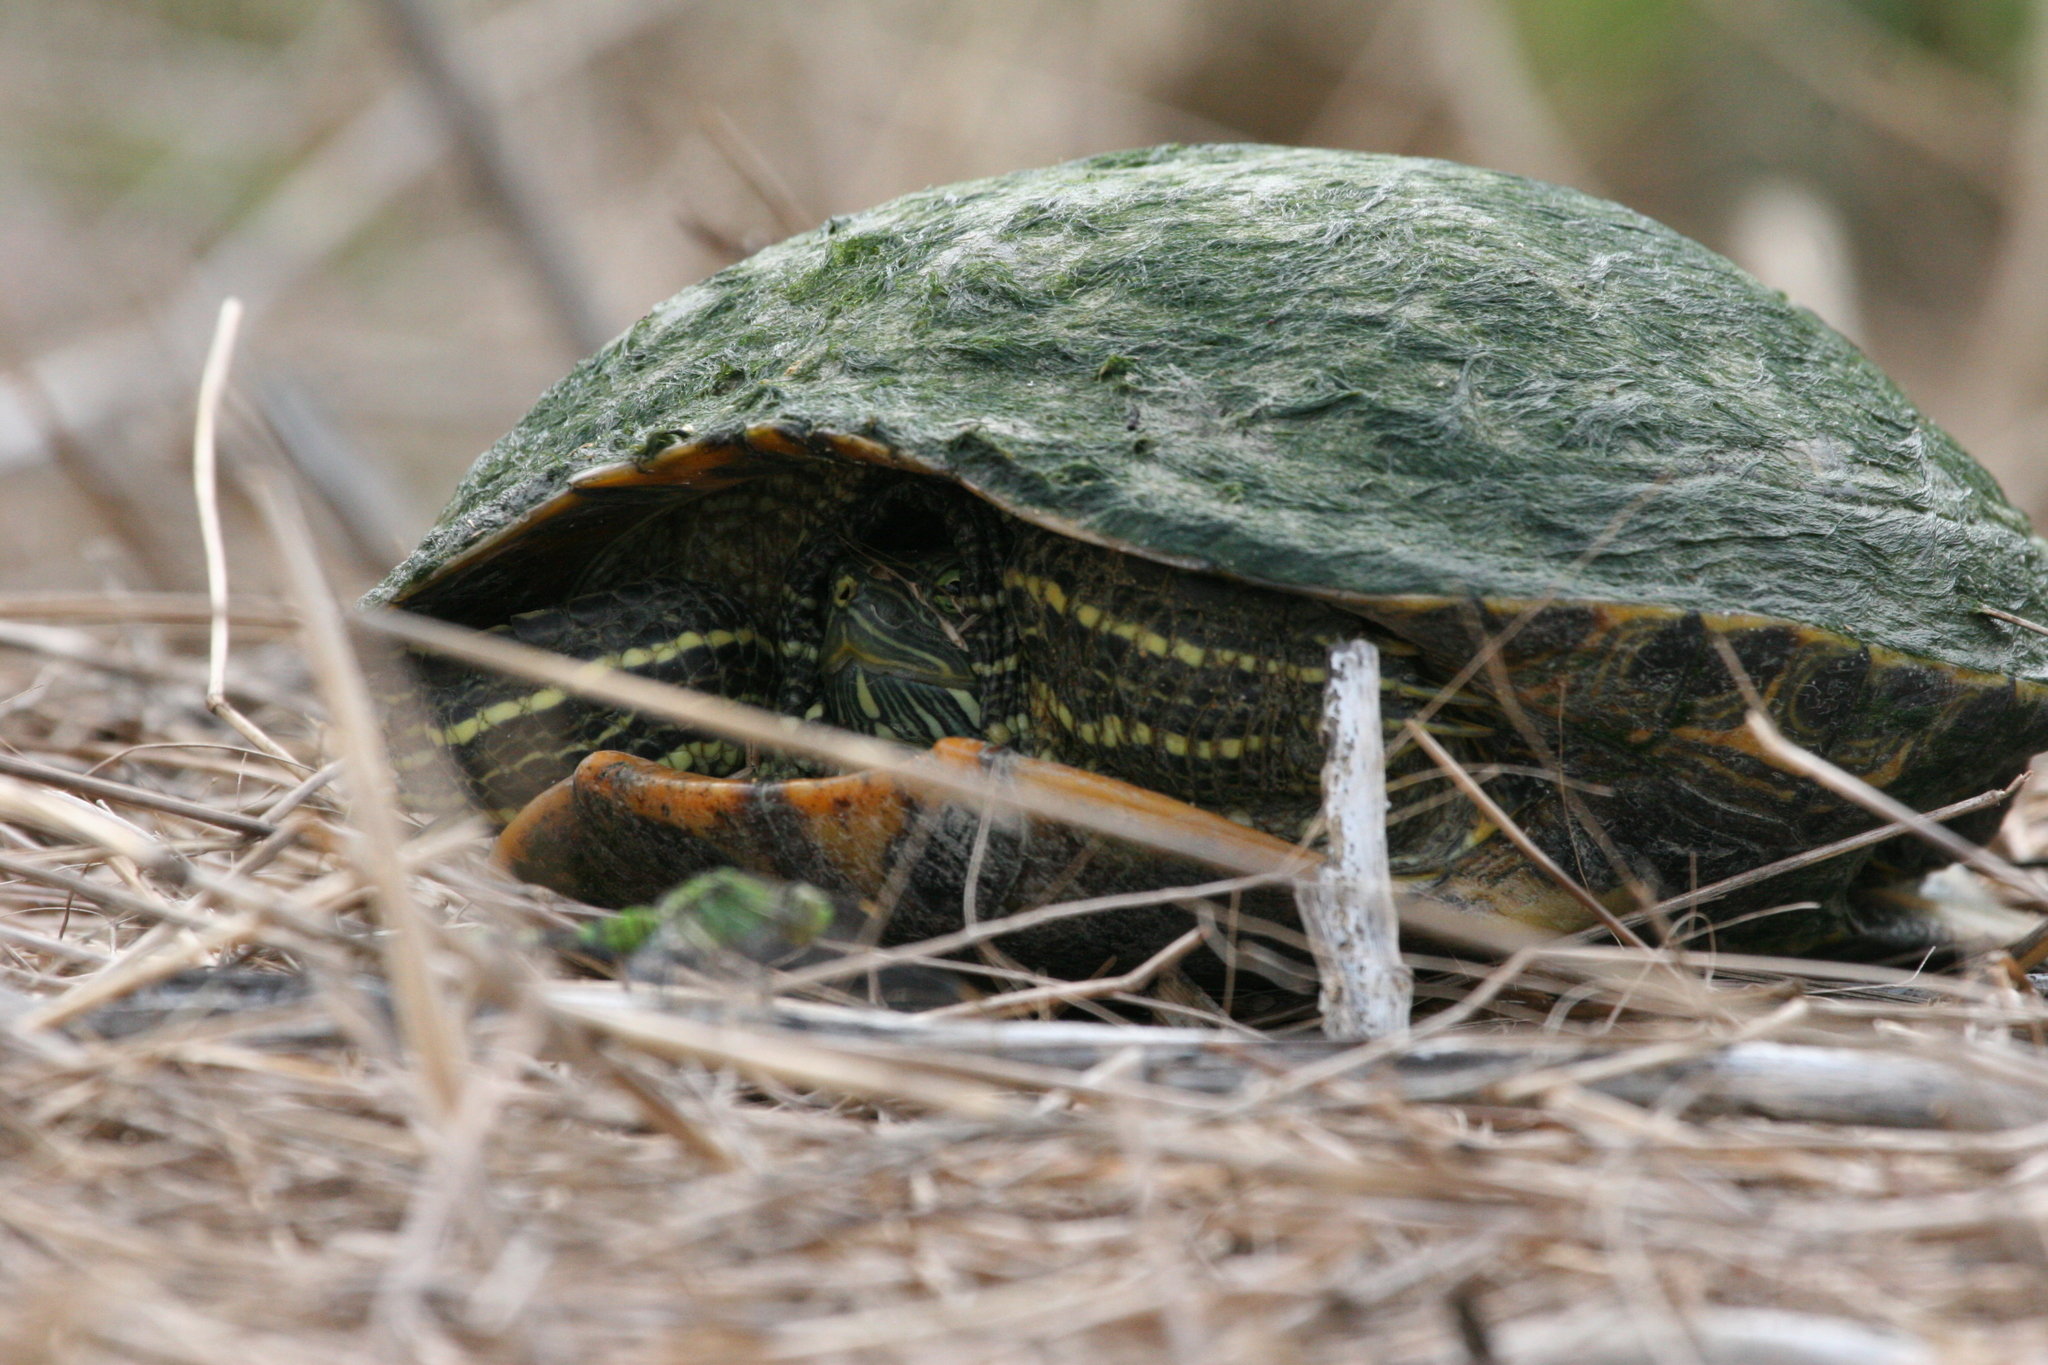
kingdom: Animalia
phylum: Chordata
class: Testudines
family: Emydidae
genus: Trachemys
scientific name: Trachemys scripta
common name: Slider
